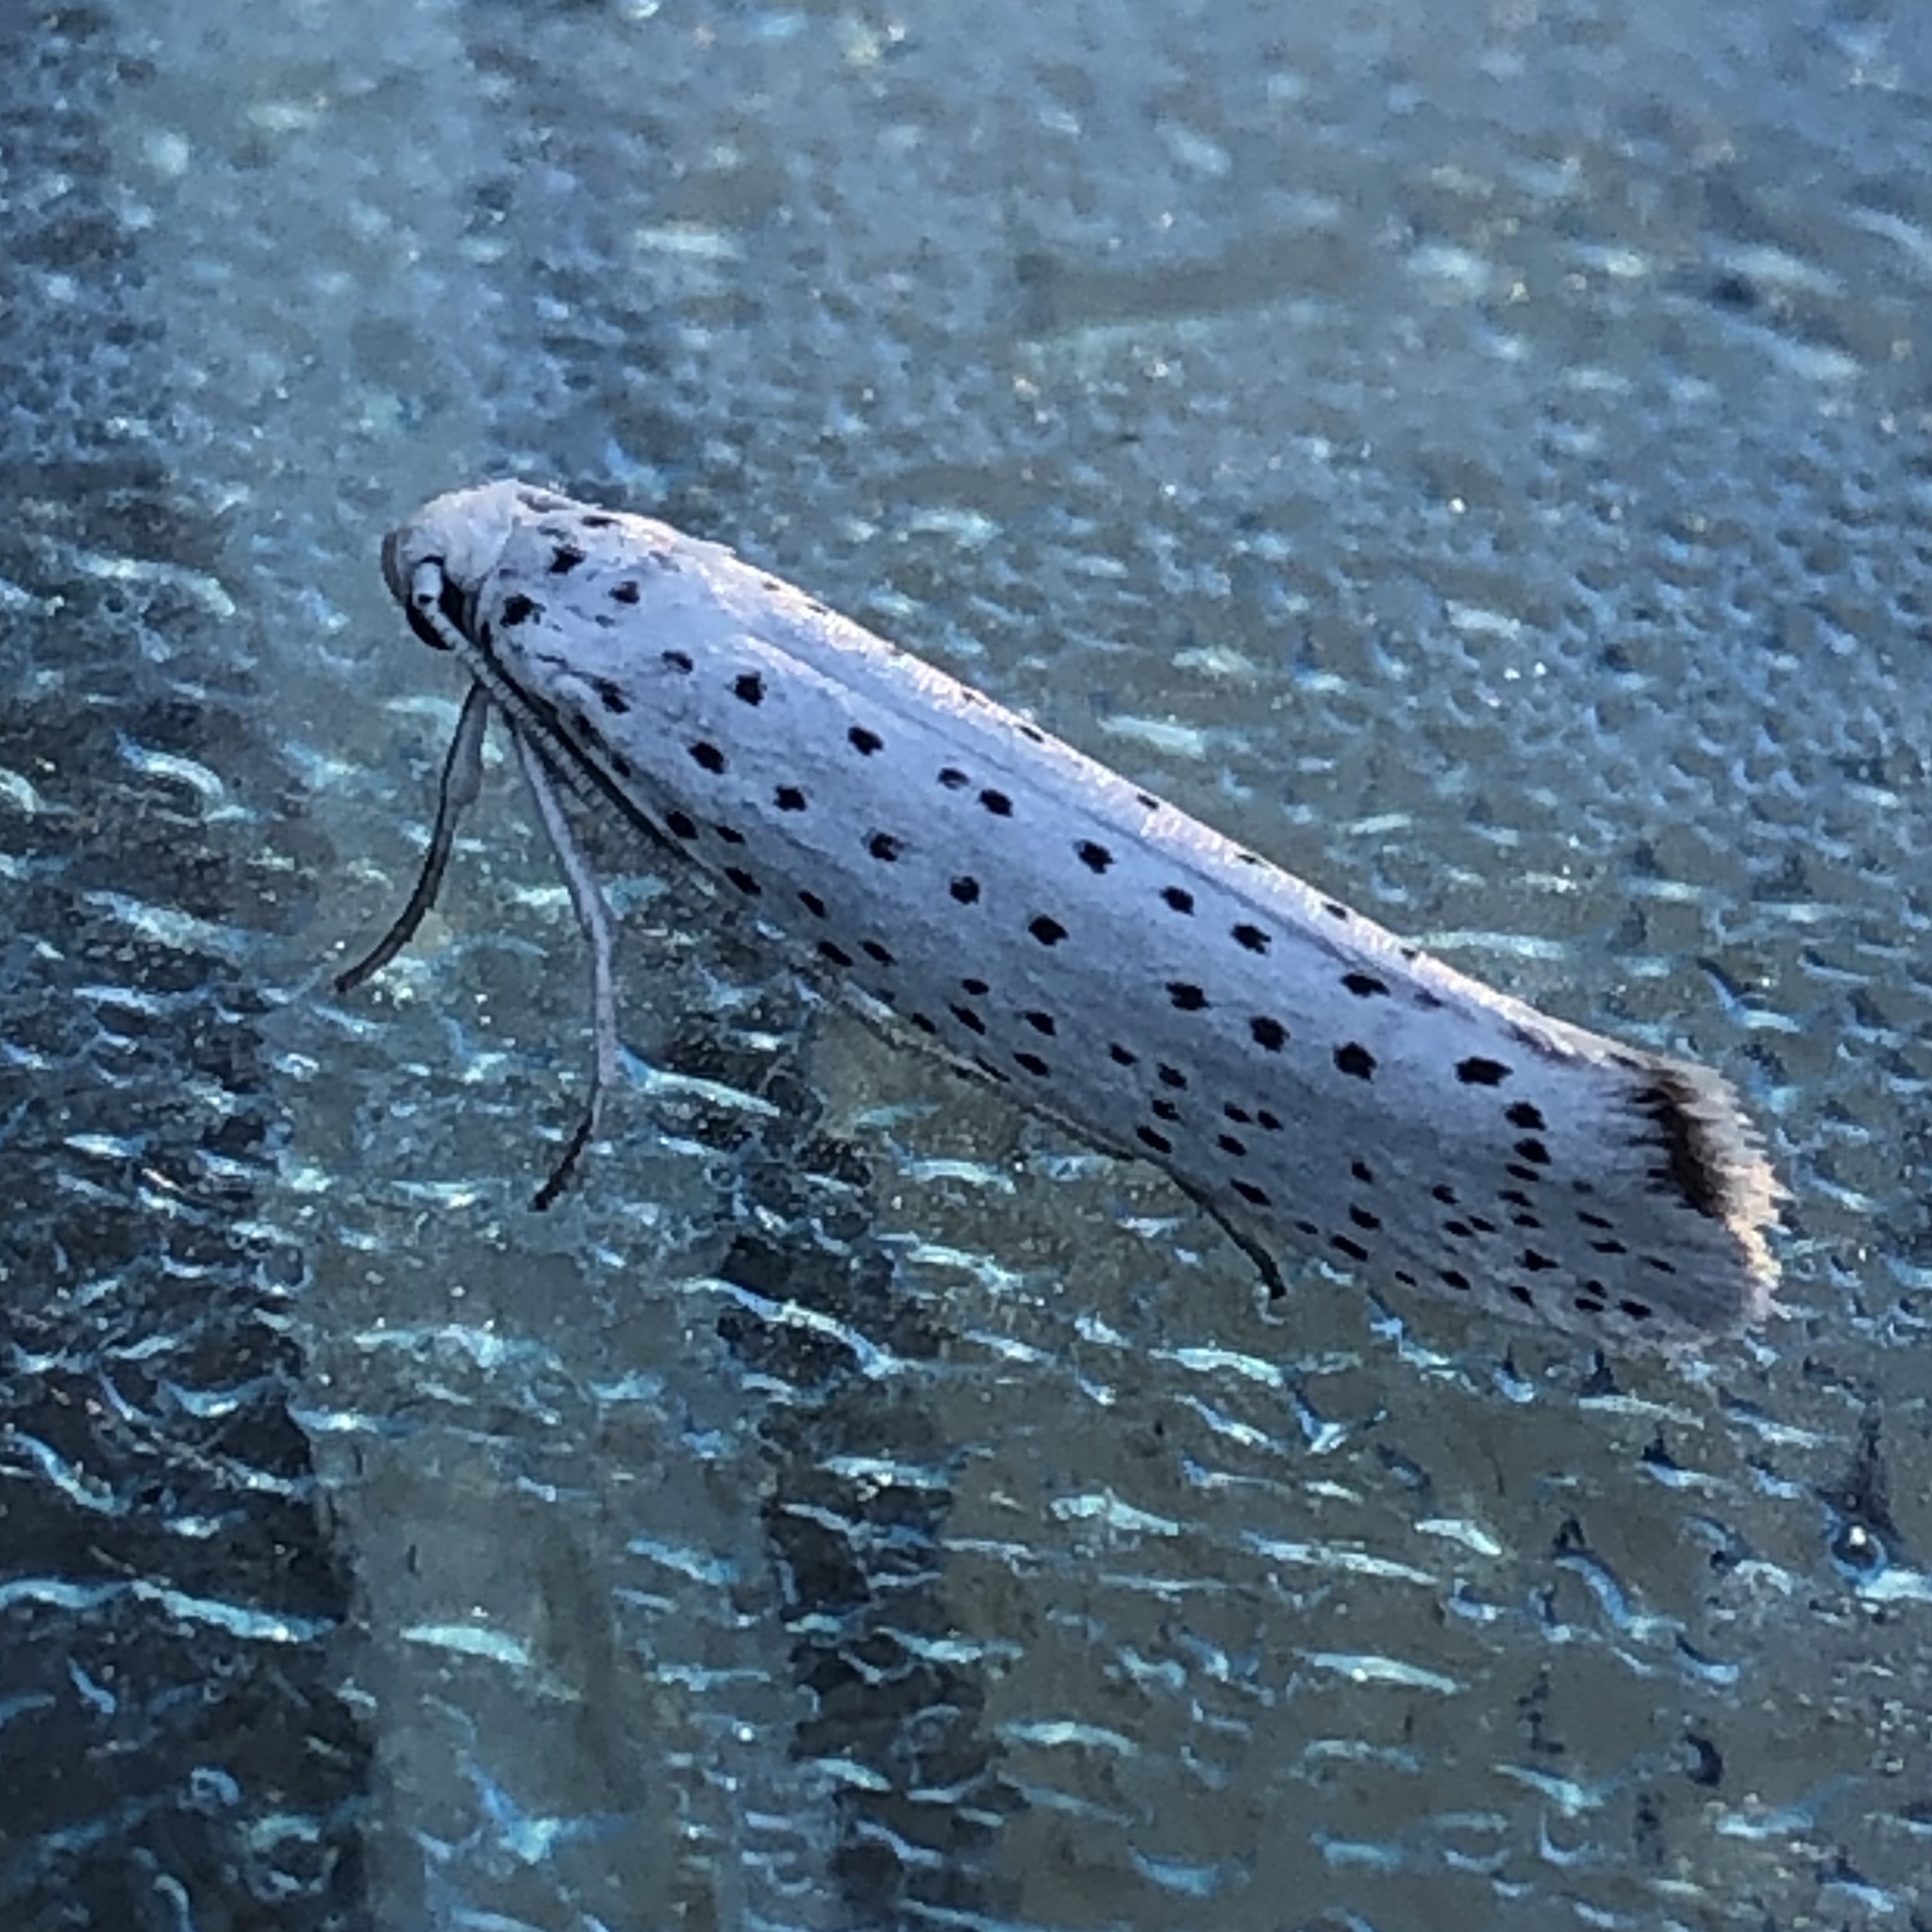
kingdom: Animalia
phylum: Arthropoda
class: Insecta
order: Lepidoptera
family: Yponomeutidae
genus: Yponomeuta
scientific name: Yponomeuta evonymella
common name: Bird-cherry ermine
